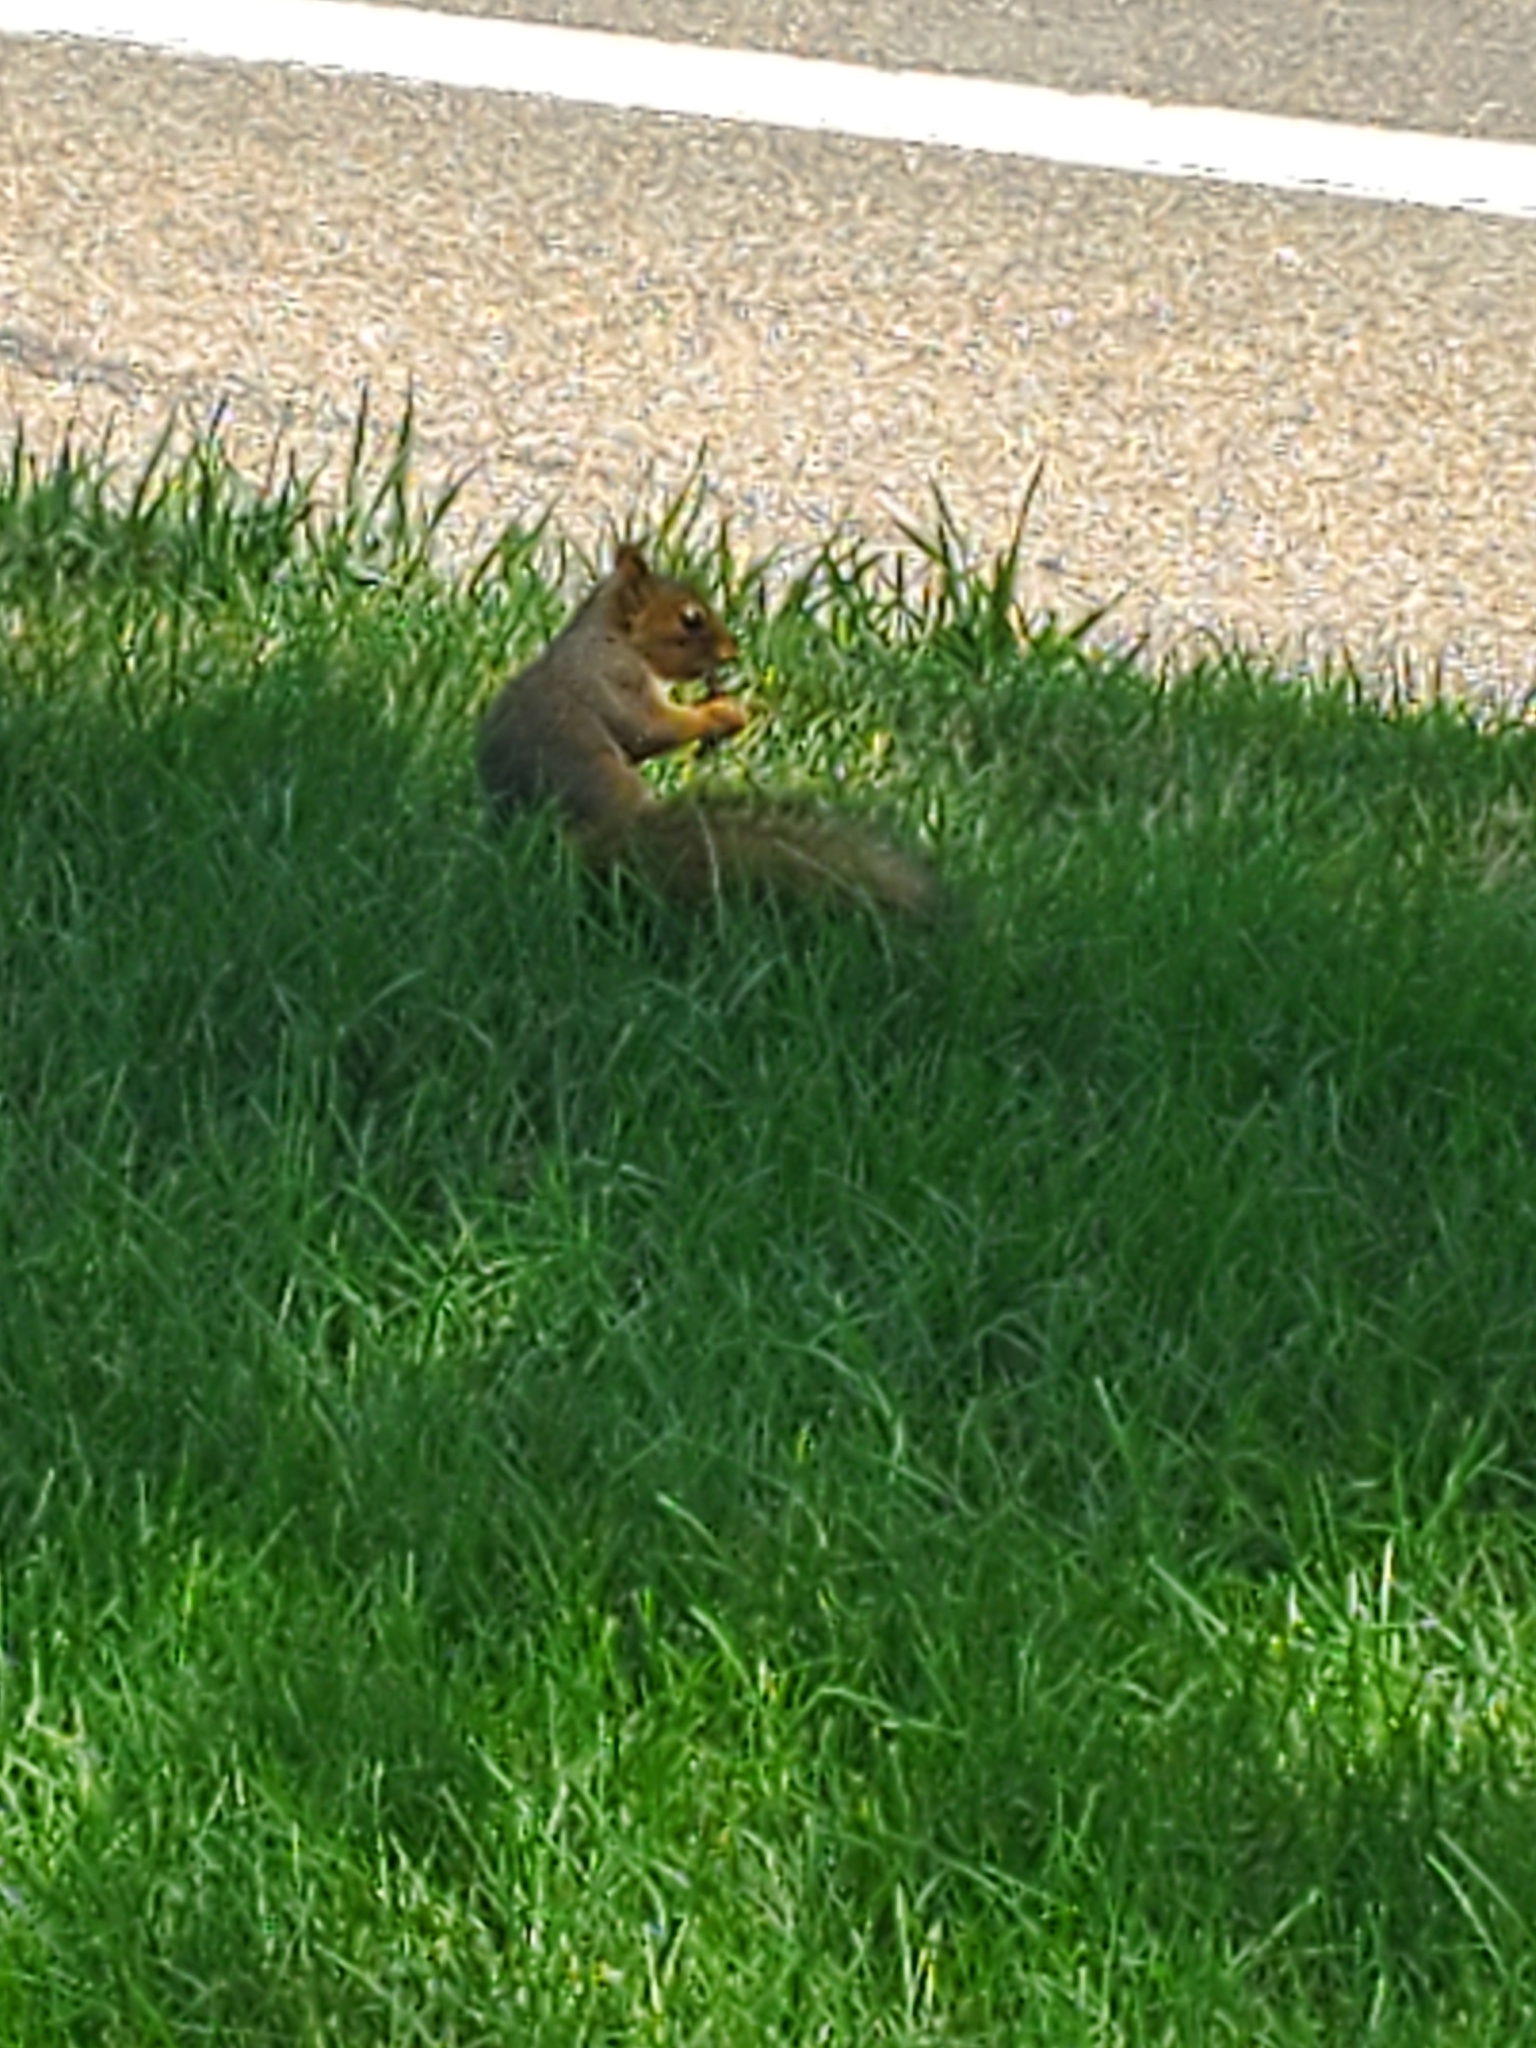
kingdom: Animalia
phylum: Chordata
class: Mammalia
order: Rodentia
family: Sciuridae
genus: Sciurus
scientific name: Sciurus niger
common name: Fox squirrel
